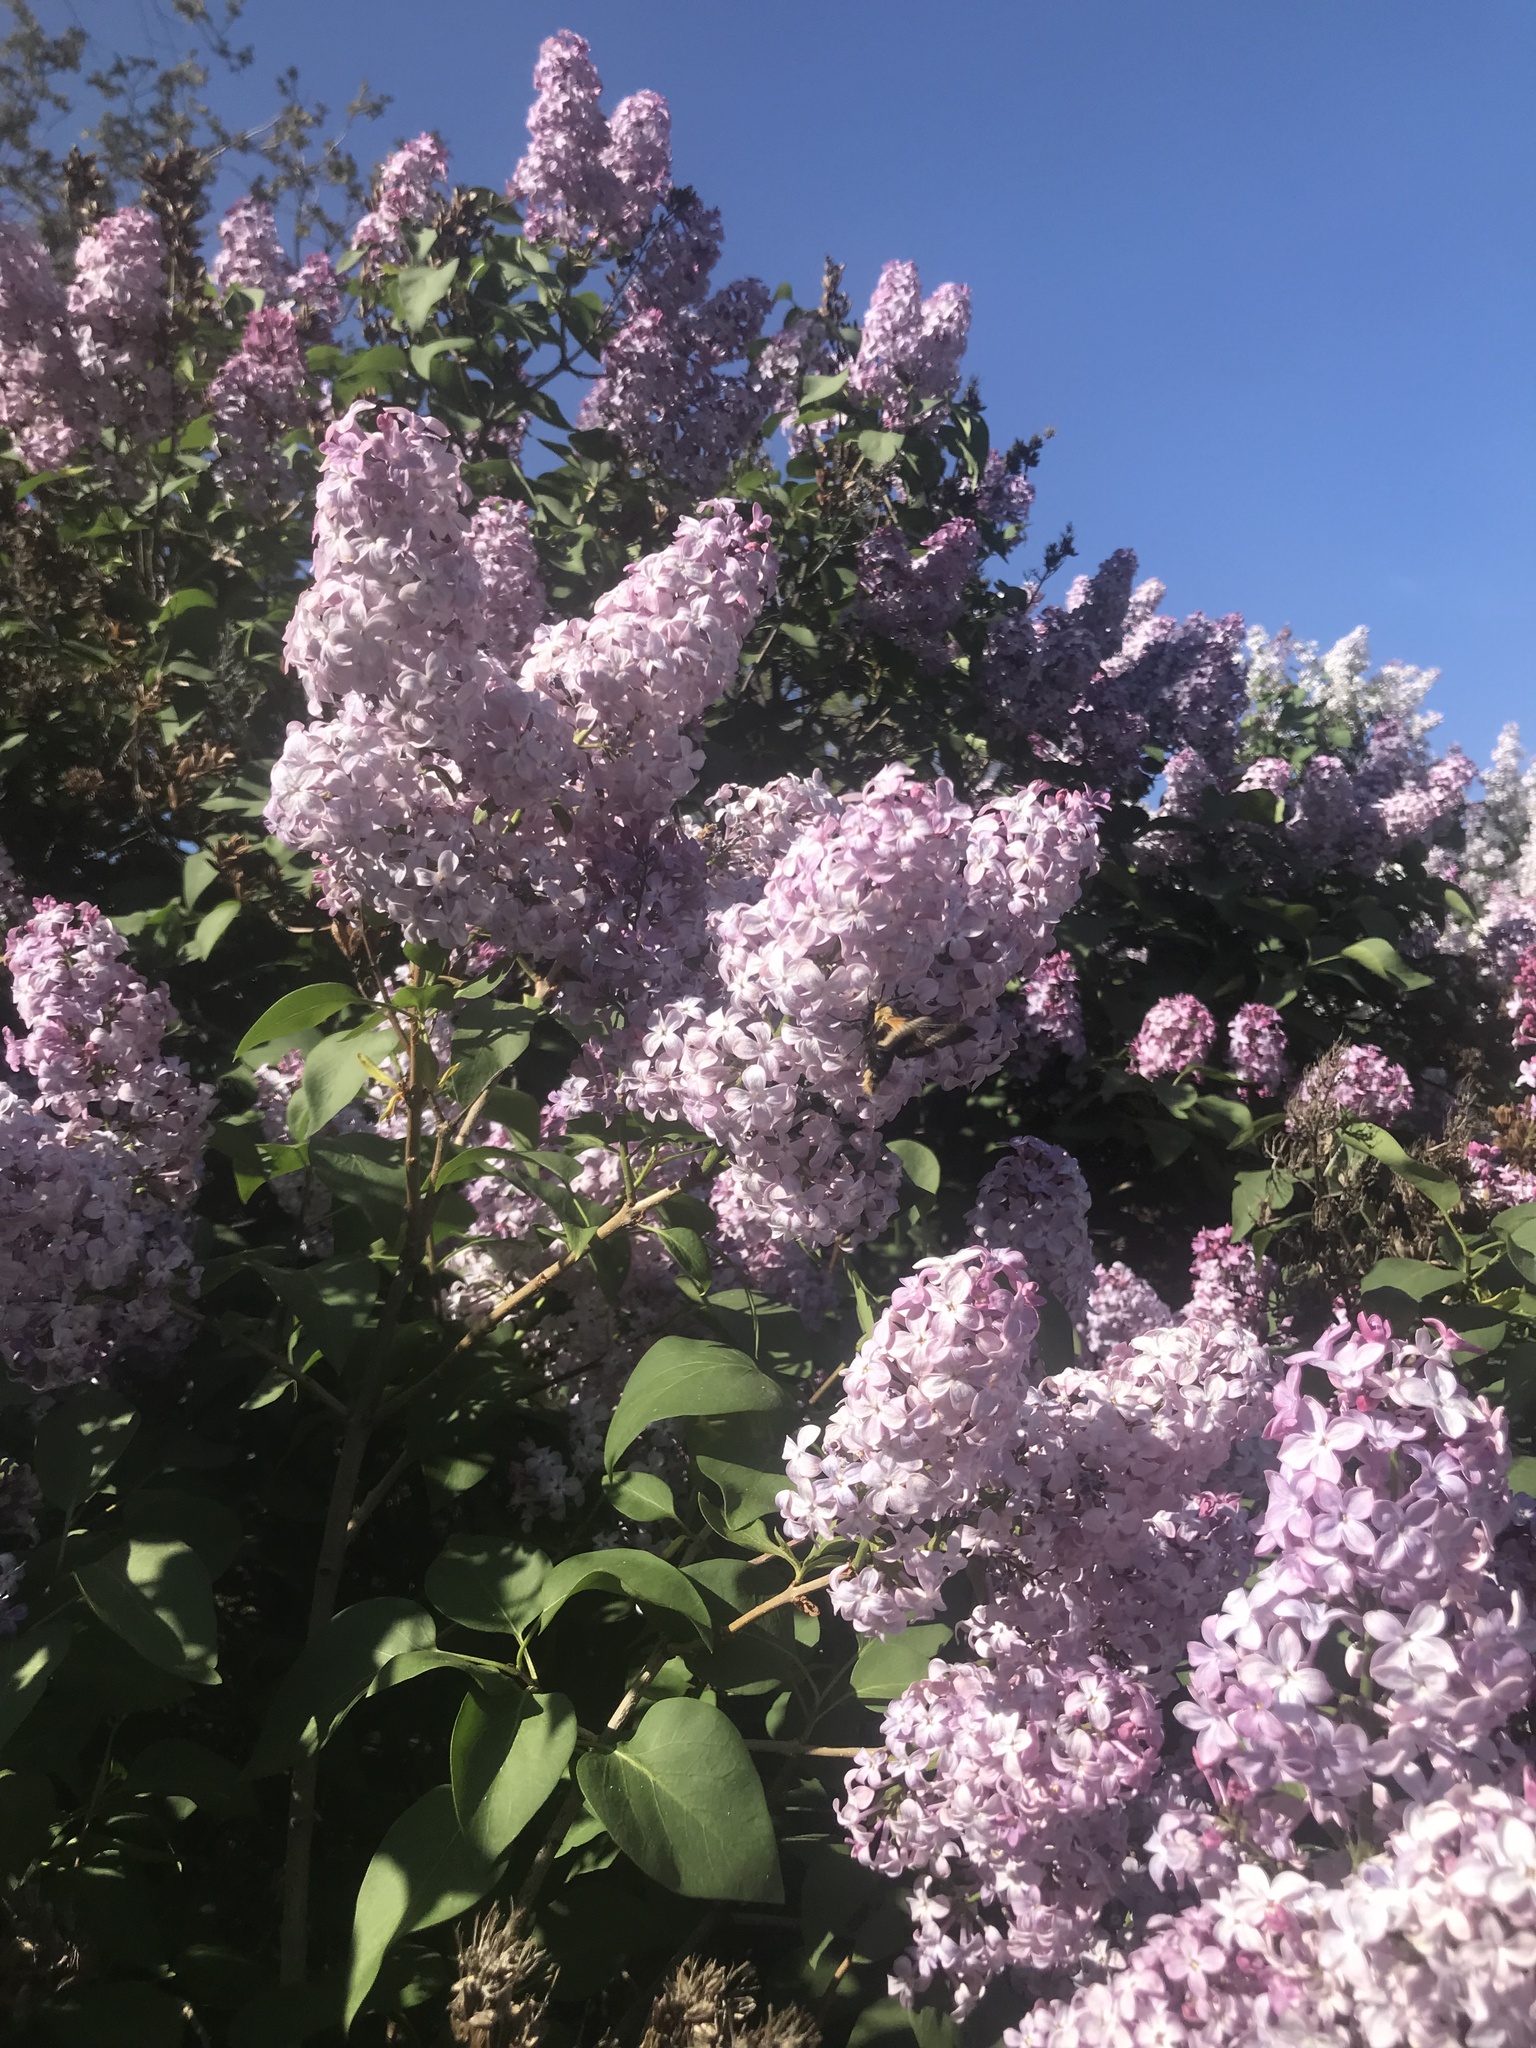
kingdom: Animalia
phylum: Arthropoda
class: Insecta
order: Lepidoptera
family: Sphingidae
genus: Proserpinus
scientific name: Proserpinus flavofasciata
